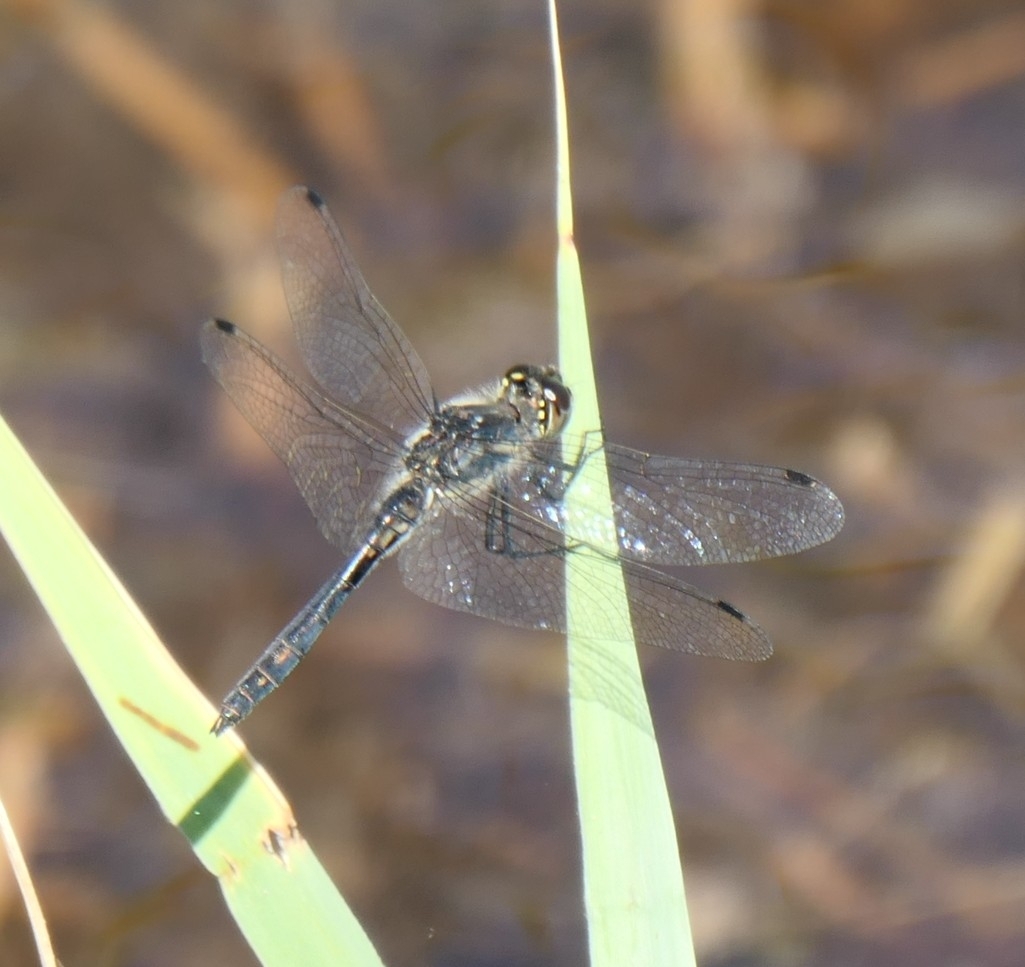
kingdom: Animalia
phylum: Arthropoda
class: Insecta
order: Odonata
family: Libellulidae
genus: Sympetrum
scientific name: Sympetrum danae
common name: Black darter
